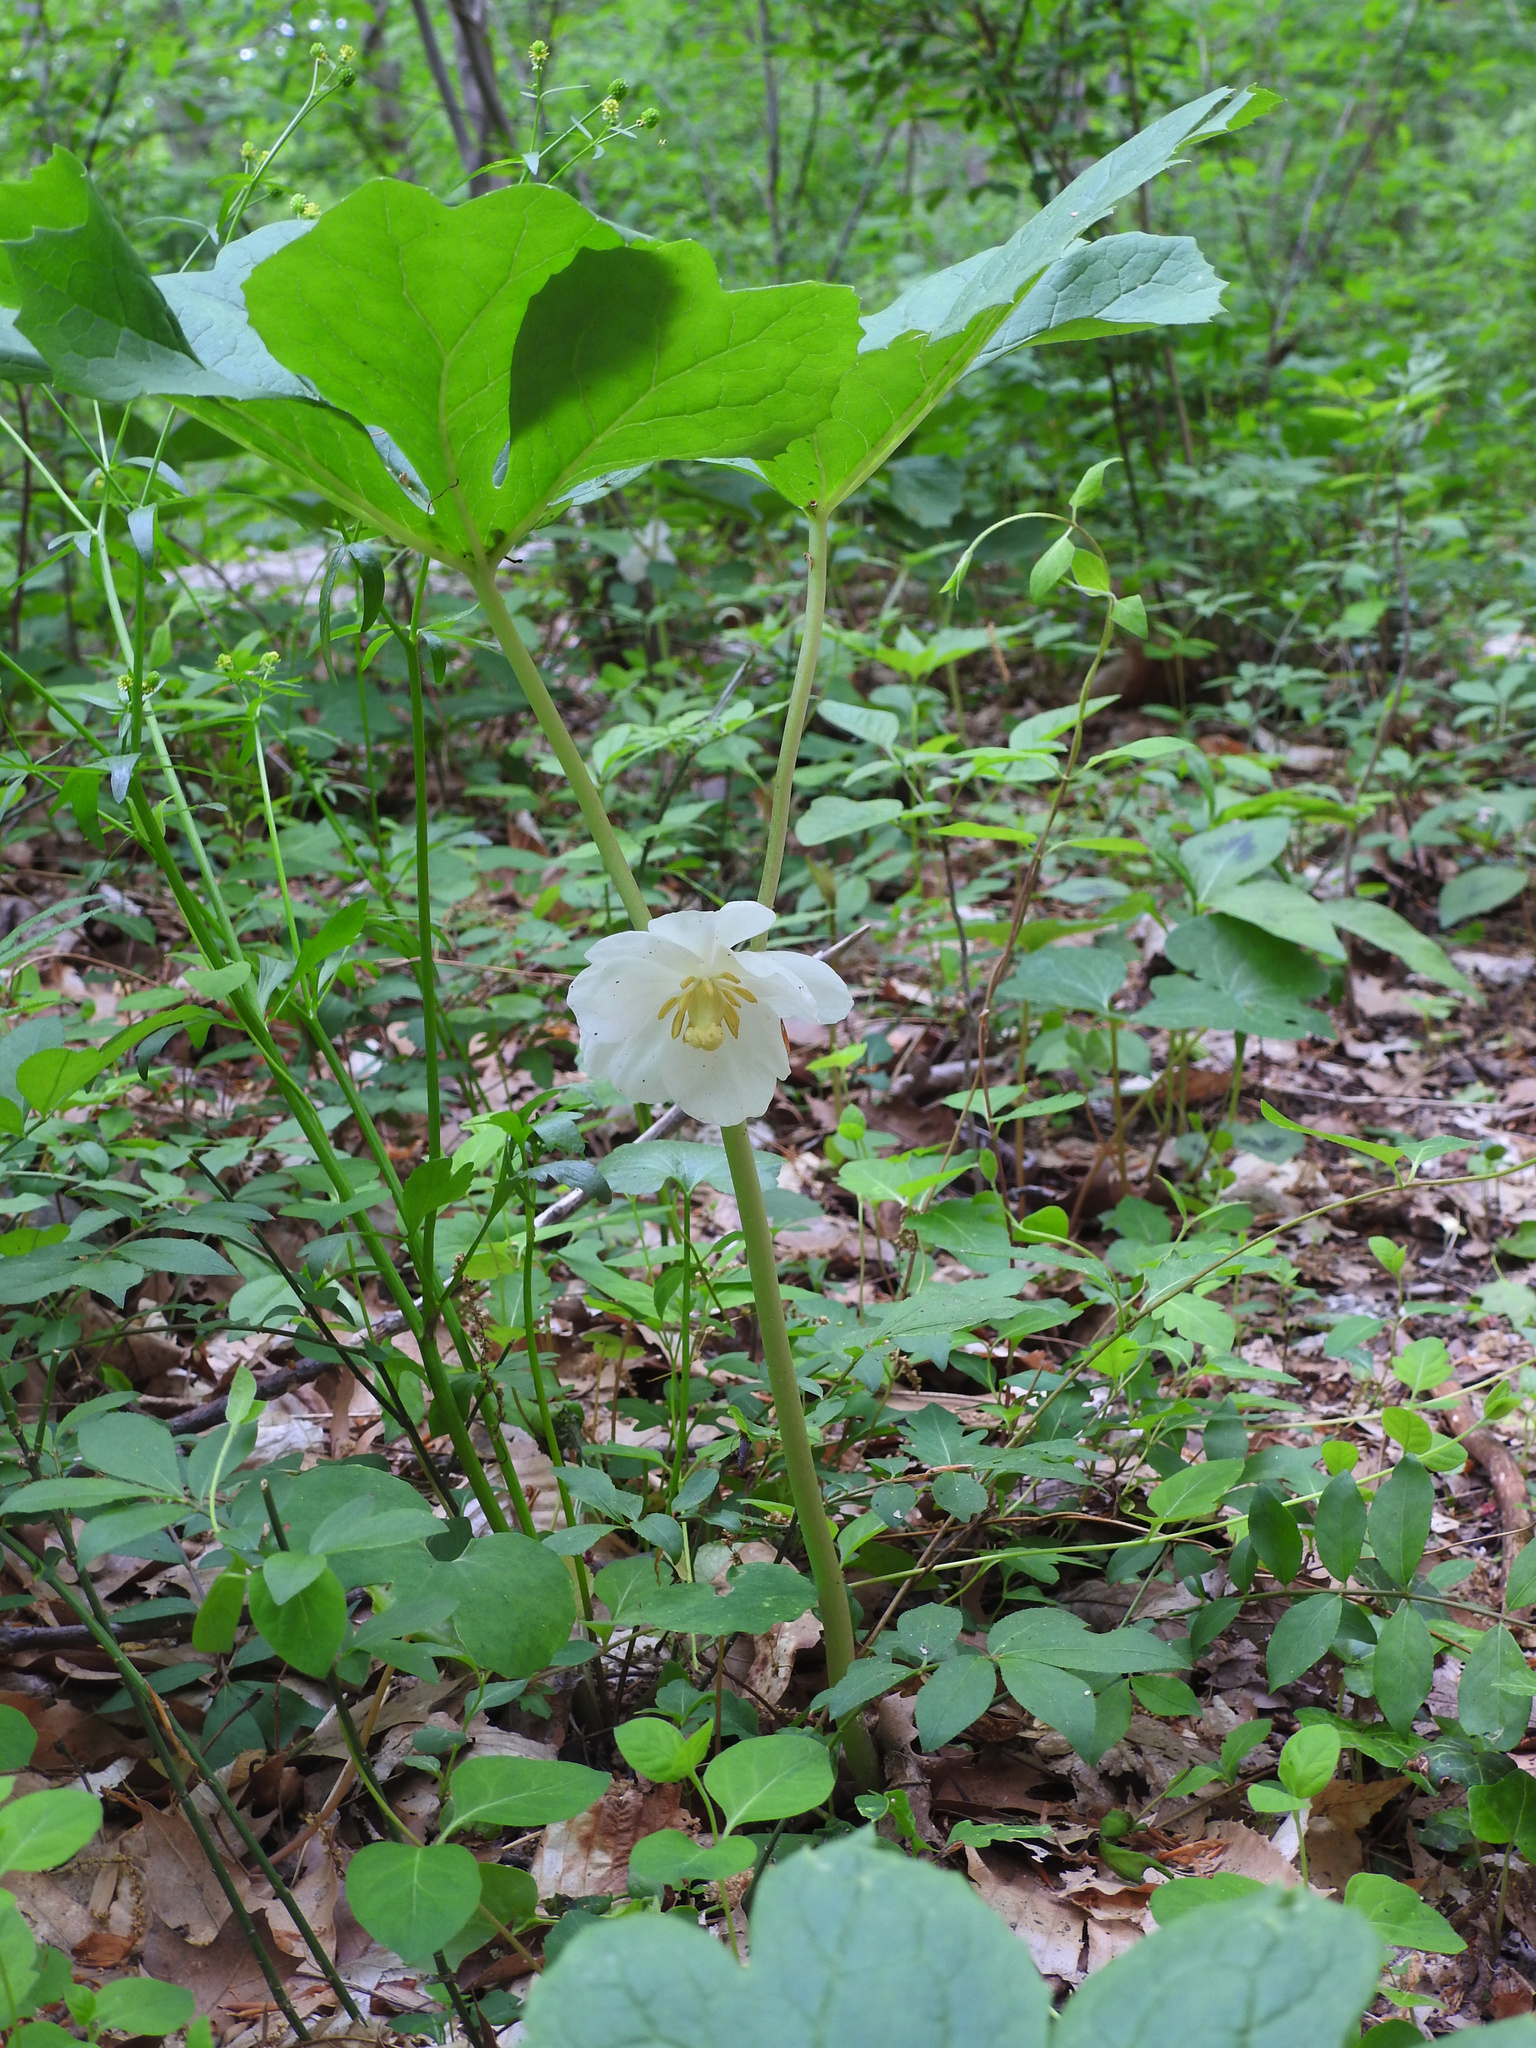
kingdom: Plantae
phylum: Tracheophyta
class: Magnoliopsida
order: Ranunculales
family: Berberidaceae
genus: Podophyllum
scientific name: Podophyllum peltatum
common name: Wild mandrake
